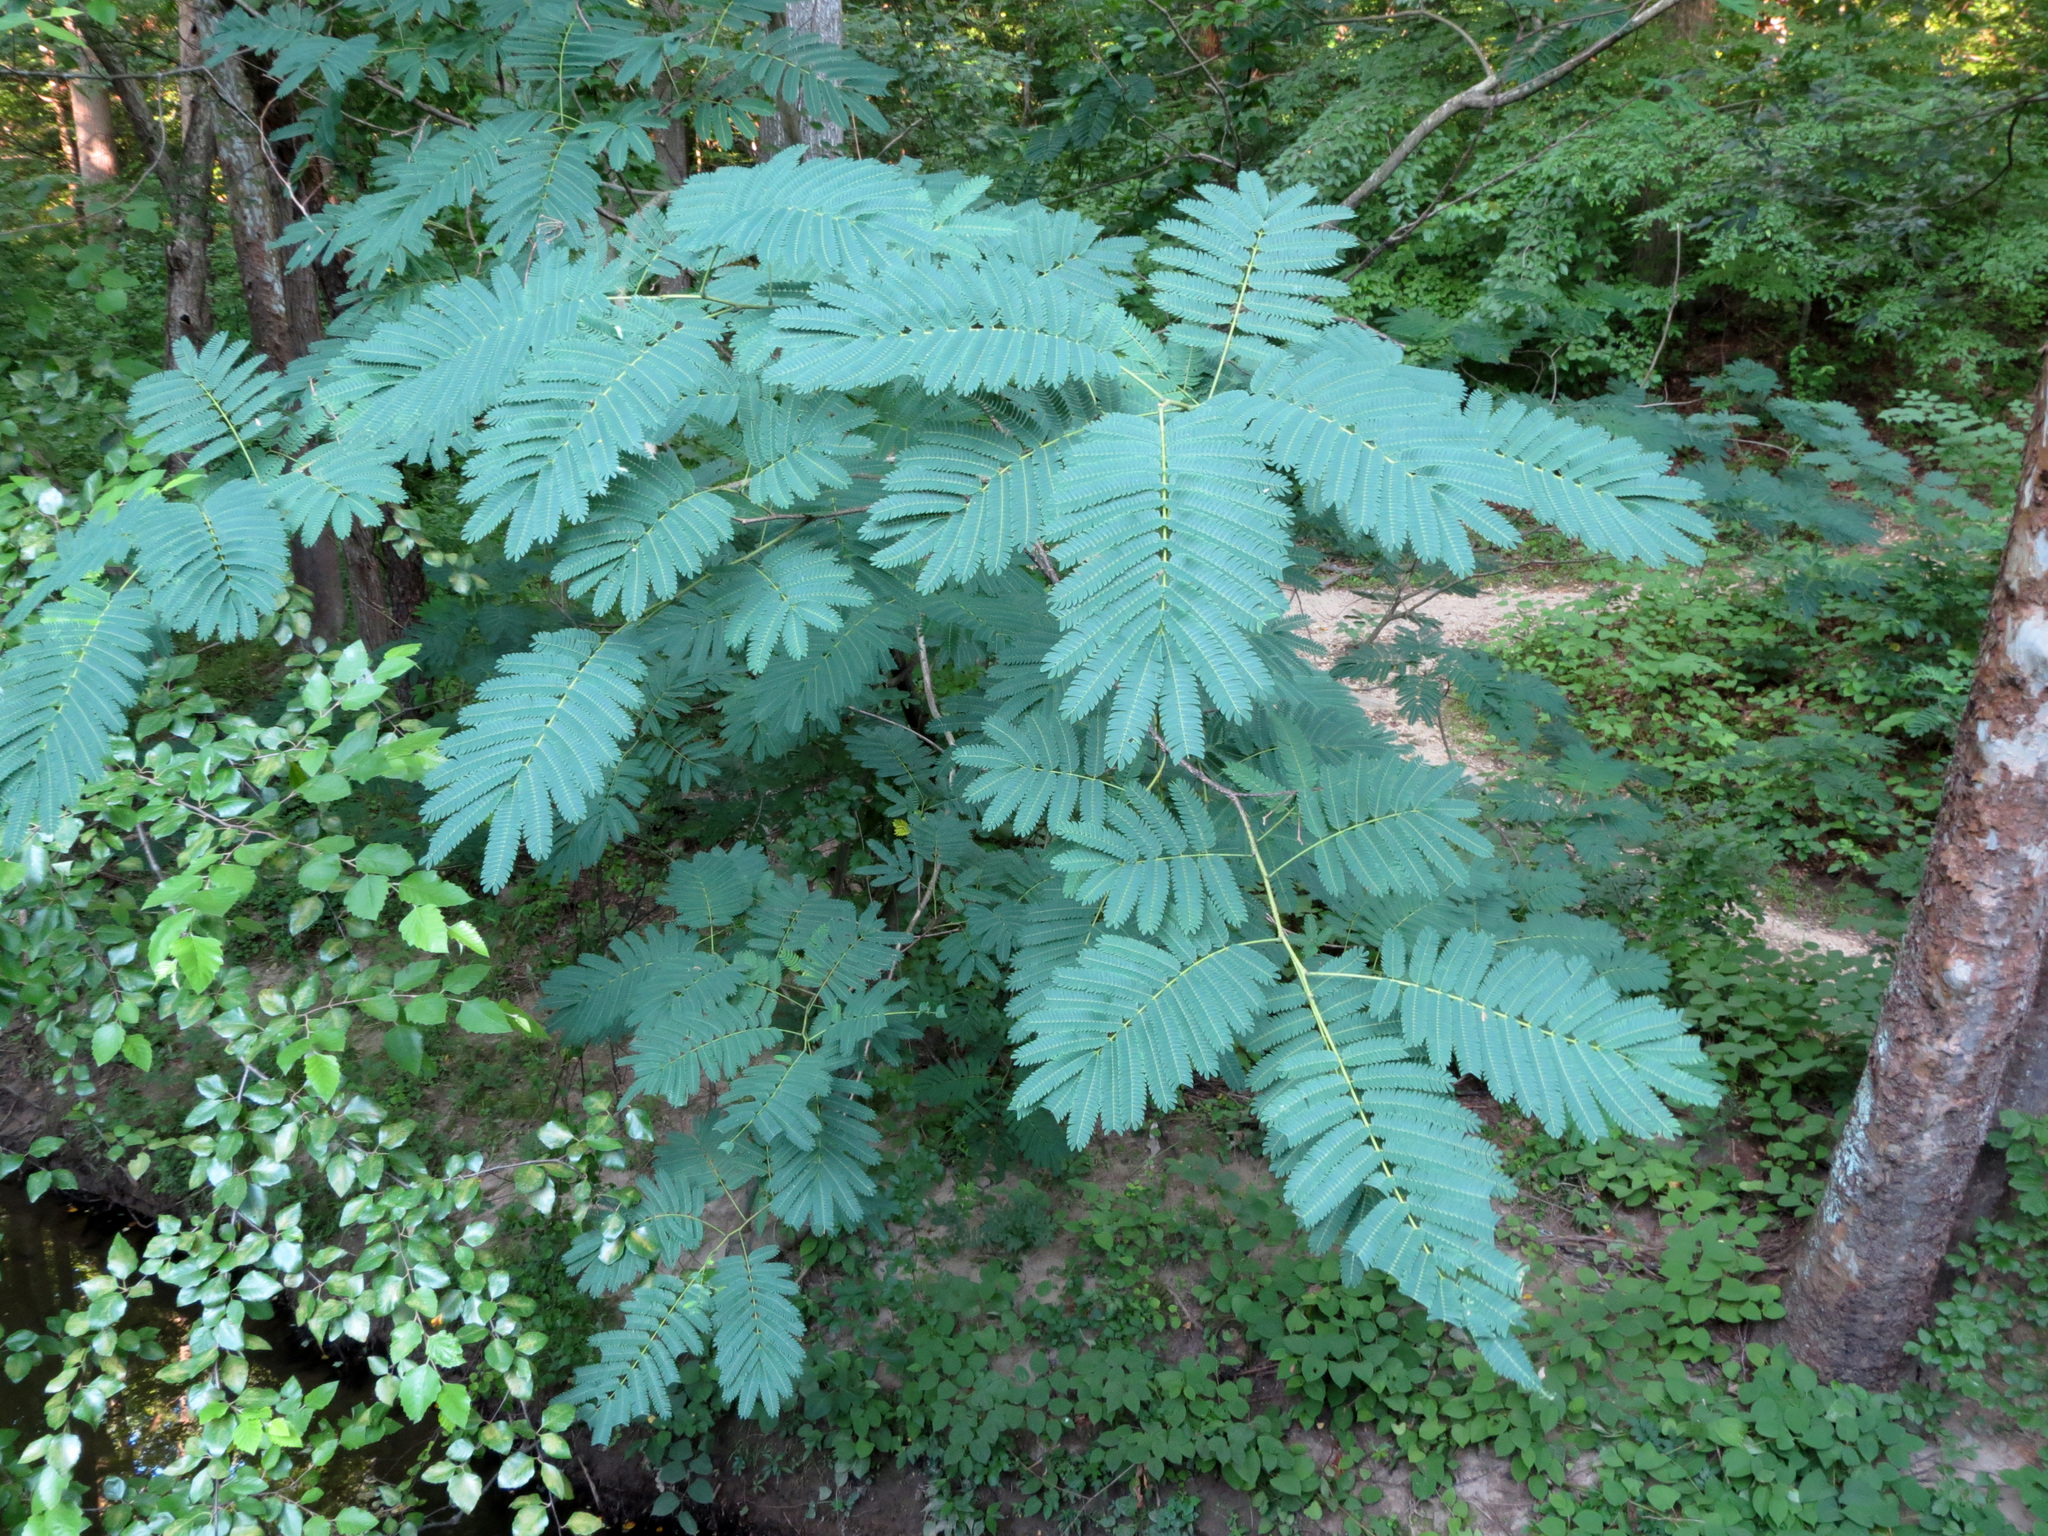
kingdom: Plantae
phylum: Tracheophyta
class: Magnoliopsida
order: Fabales
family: Fabaceae
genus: Albizia
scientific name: Albizia julibrissin
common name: Silktree
